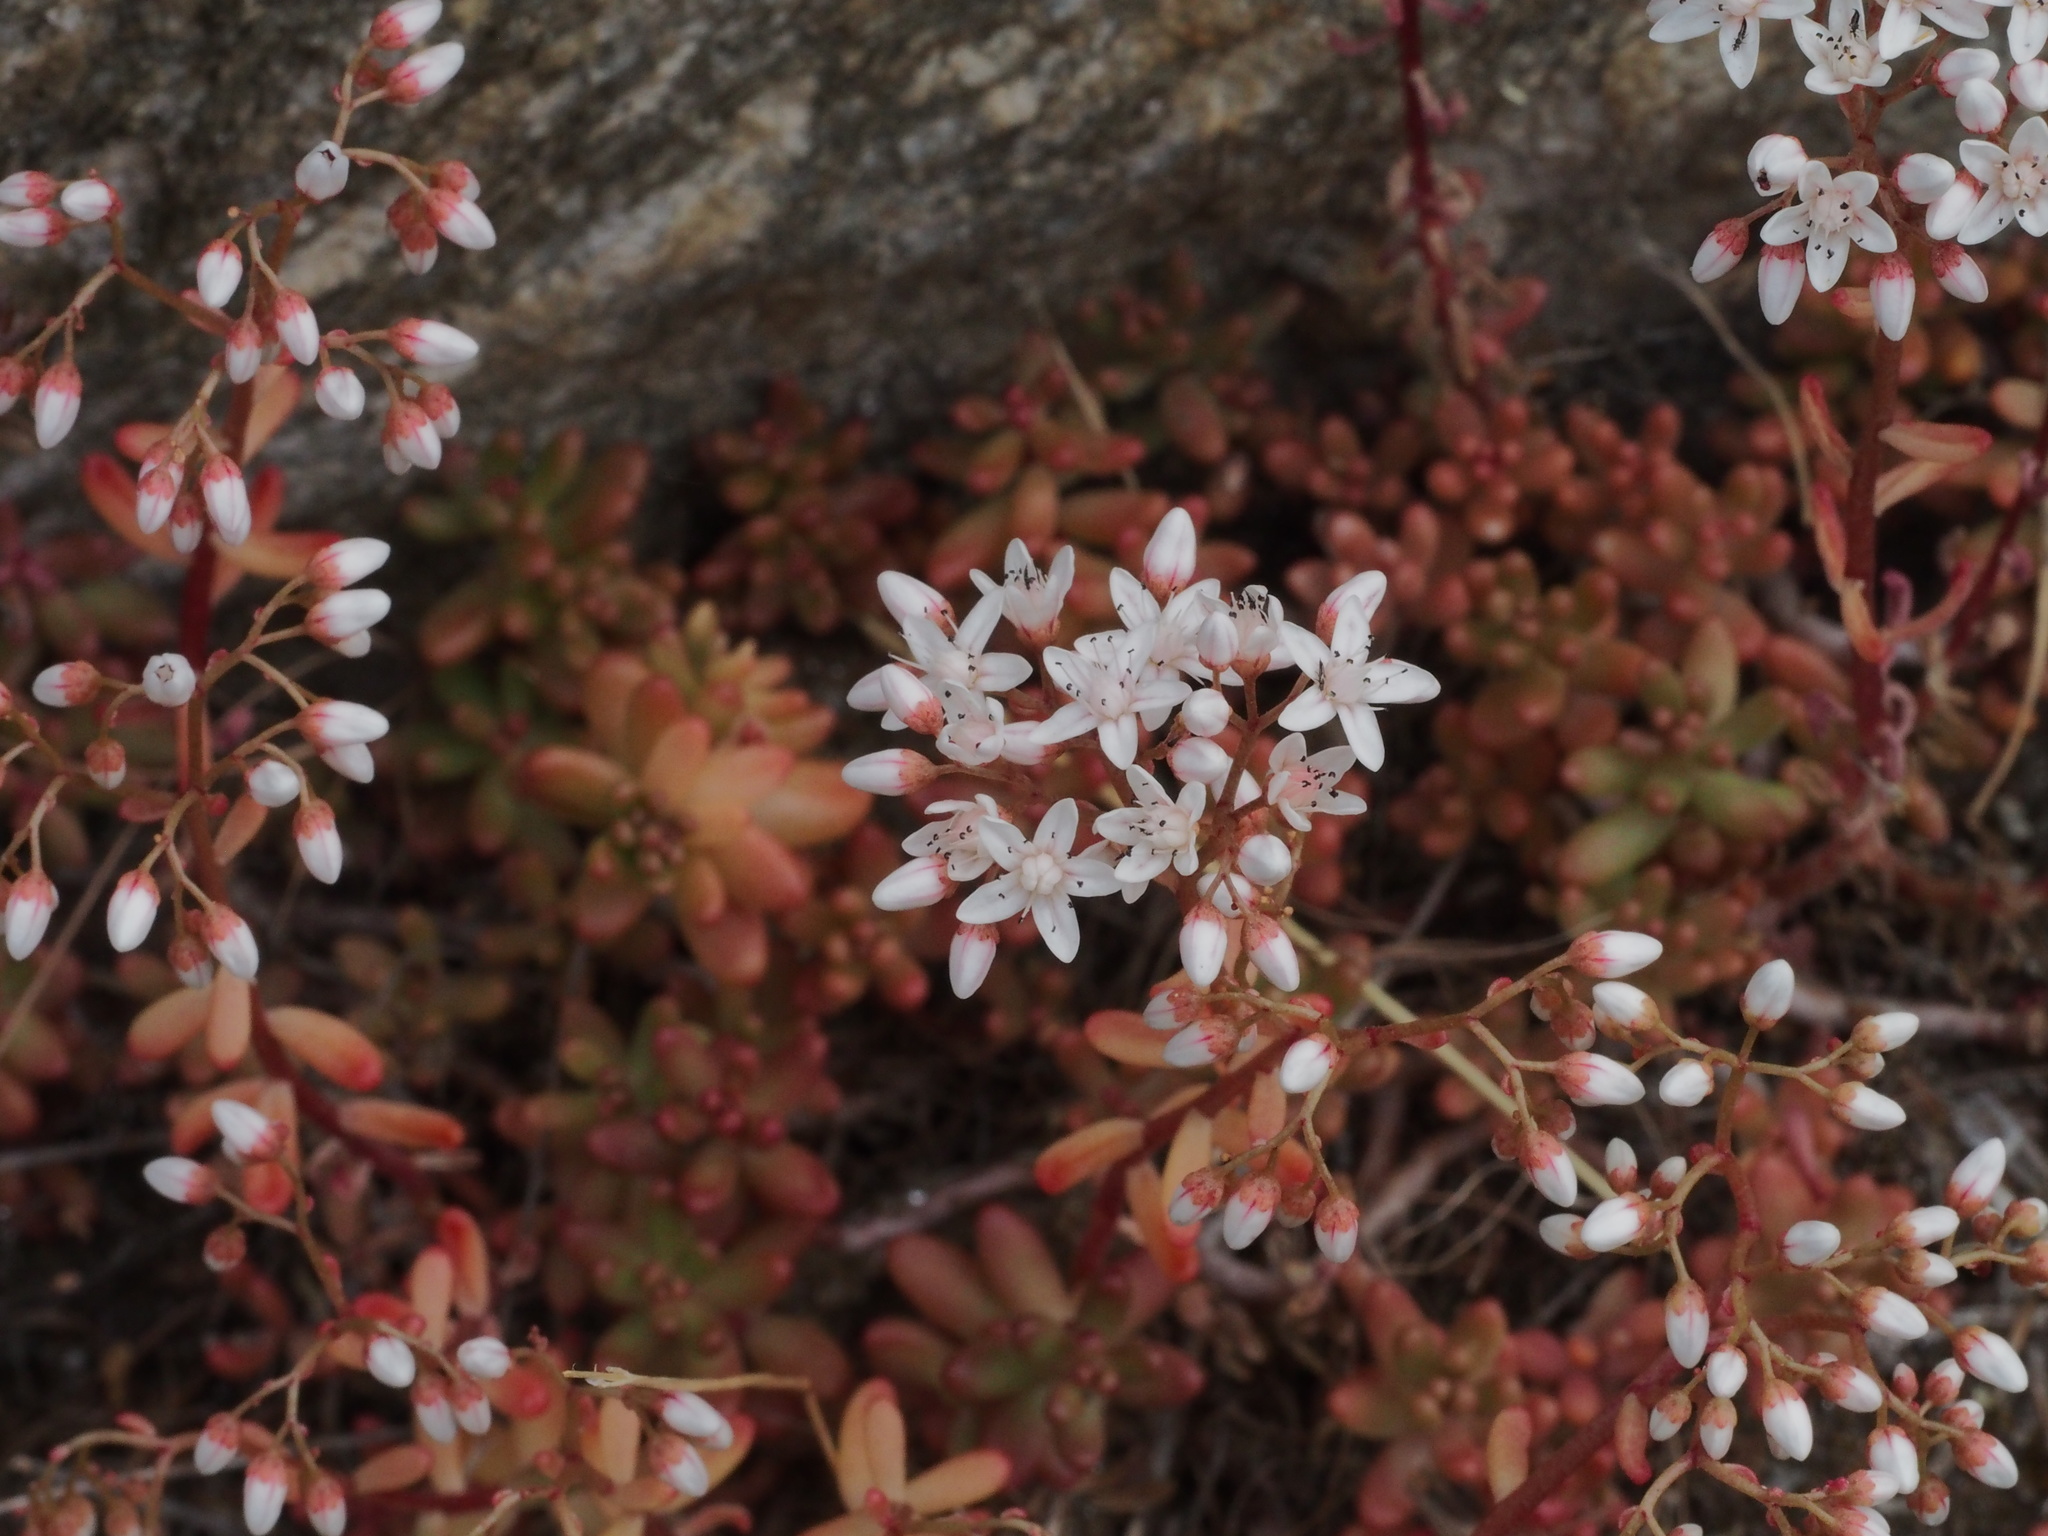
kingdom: Plantae
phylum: Tracheophyta
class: Magnoliopsida
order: Saxifragales
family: Crassulaceae
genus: Sedum
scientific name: Sedum album
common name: White stonecrop
